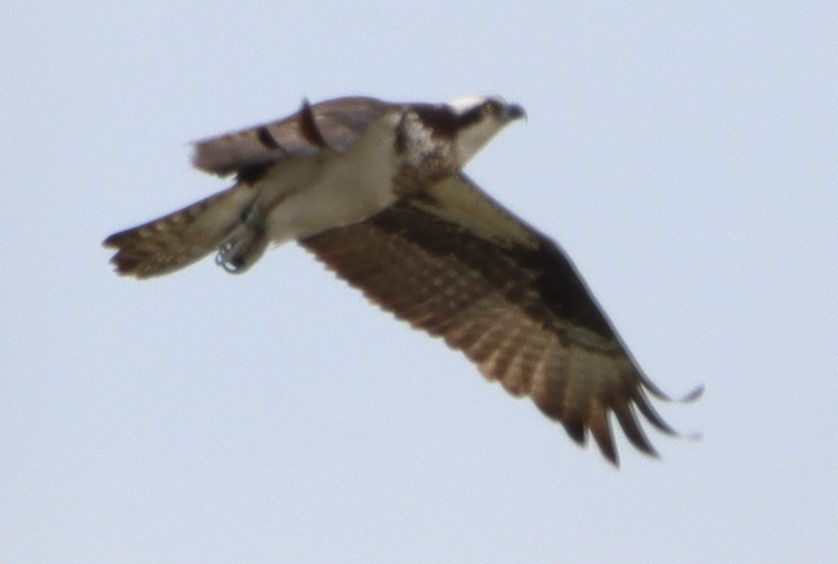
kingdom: Animalia
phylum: Chordata
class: Aves
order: Accipitriformes
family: Pandionidae
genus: Pandion
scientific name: Pandion haliaetus
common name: Osprey
